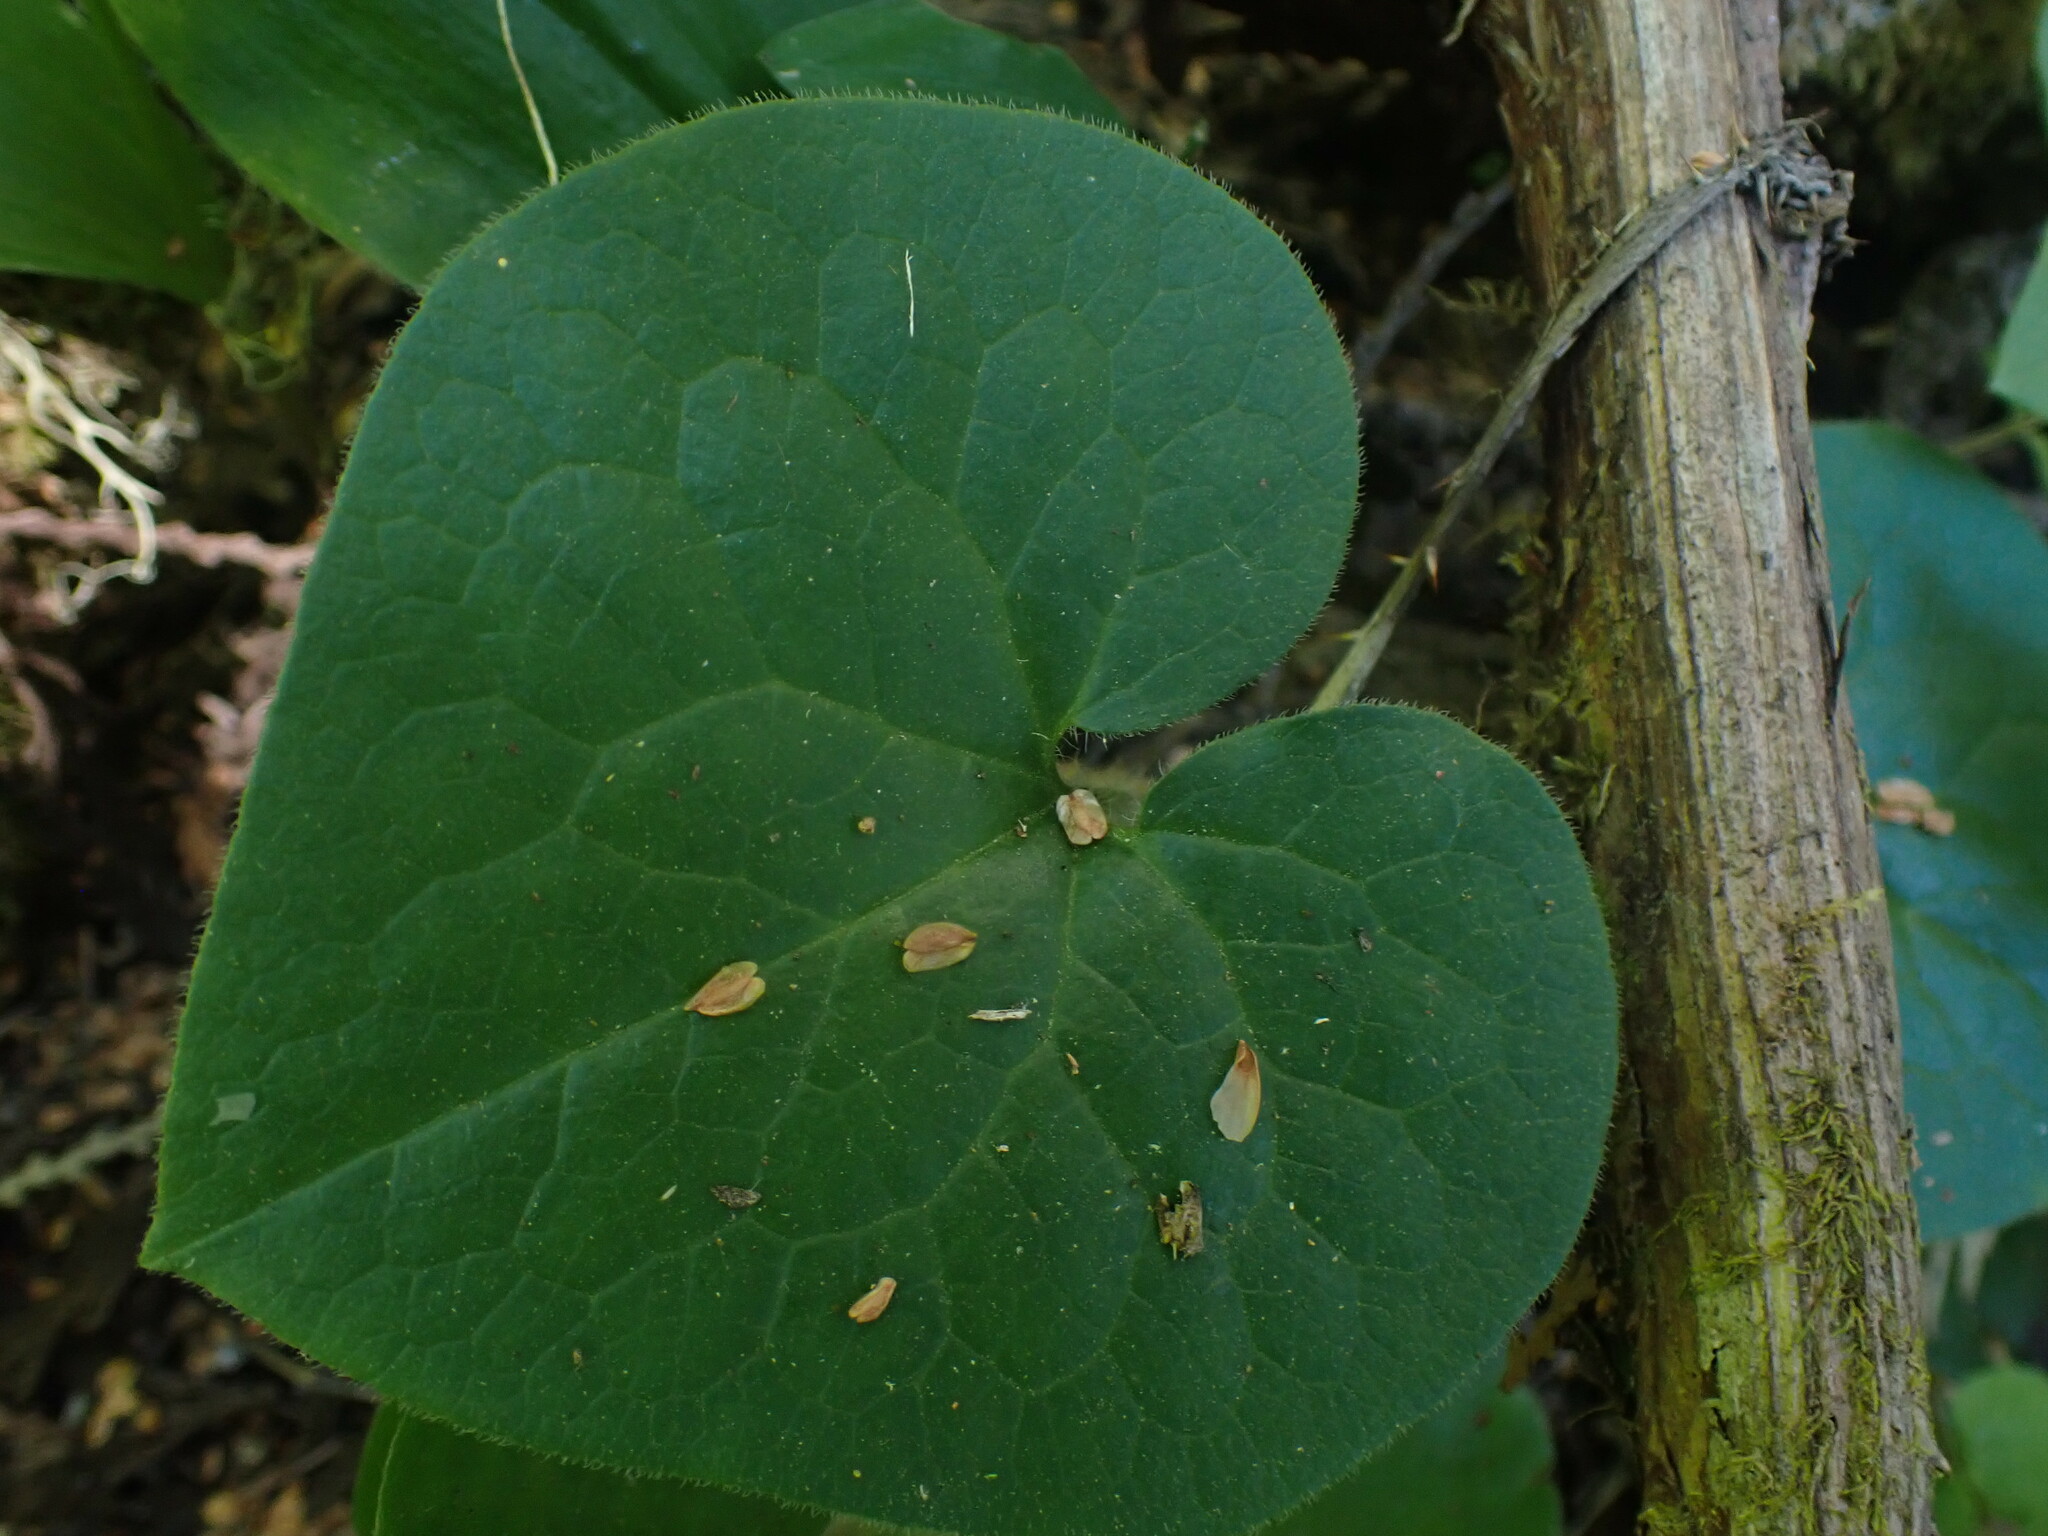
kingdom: Plantae
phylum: Tracheophyta
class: Magnoliopsida
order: Piperales
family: Aristolochiaceae
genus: Asarum
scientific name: Asarum caudatum
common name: Wild ginger
